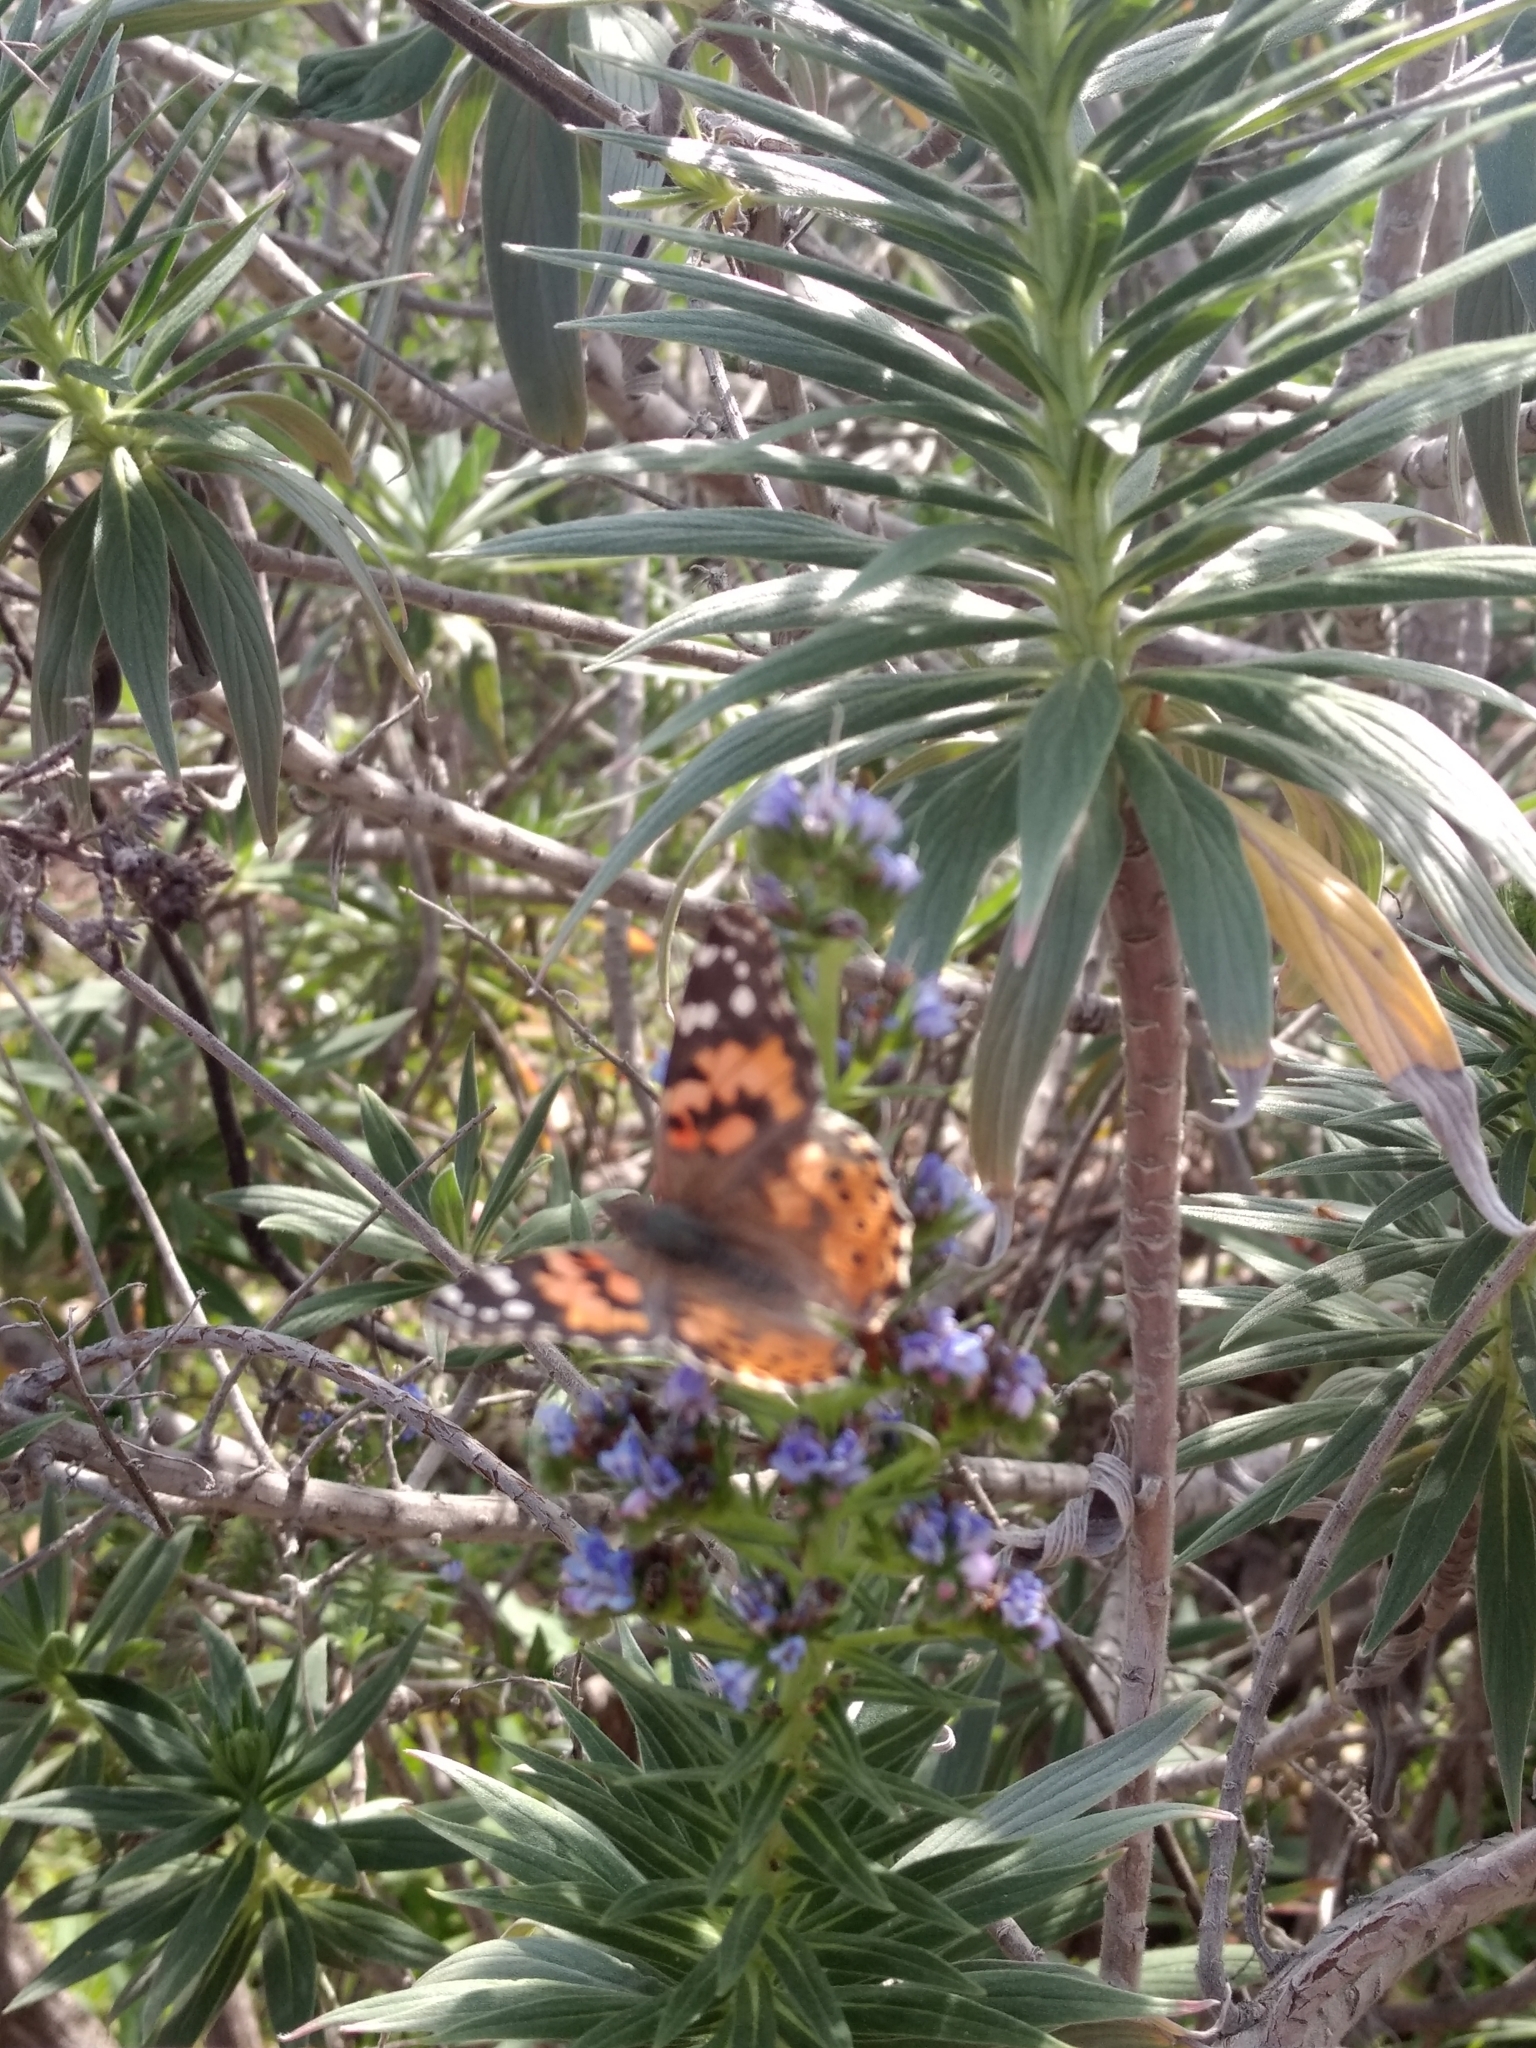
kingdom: Animalia
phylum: Arthropoda
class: Insecta
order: Lepidoptera
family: Nymphalidae
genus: Vanessa
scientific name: Vanessa cardui
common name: Painted lady
